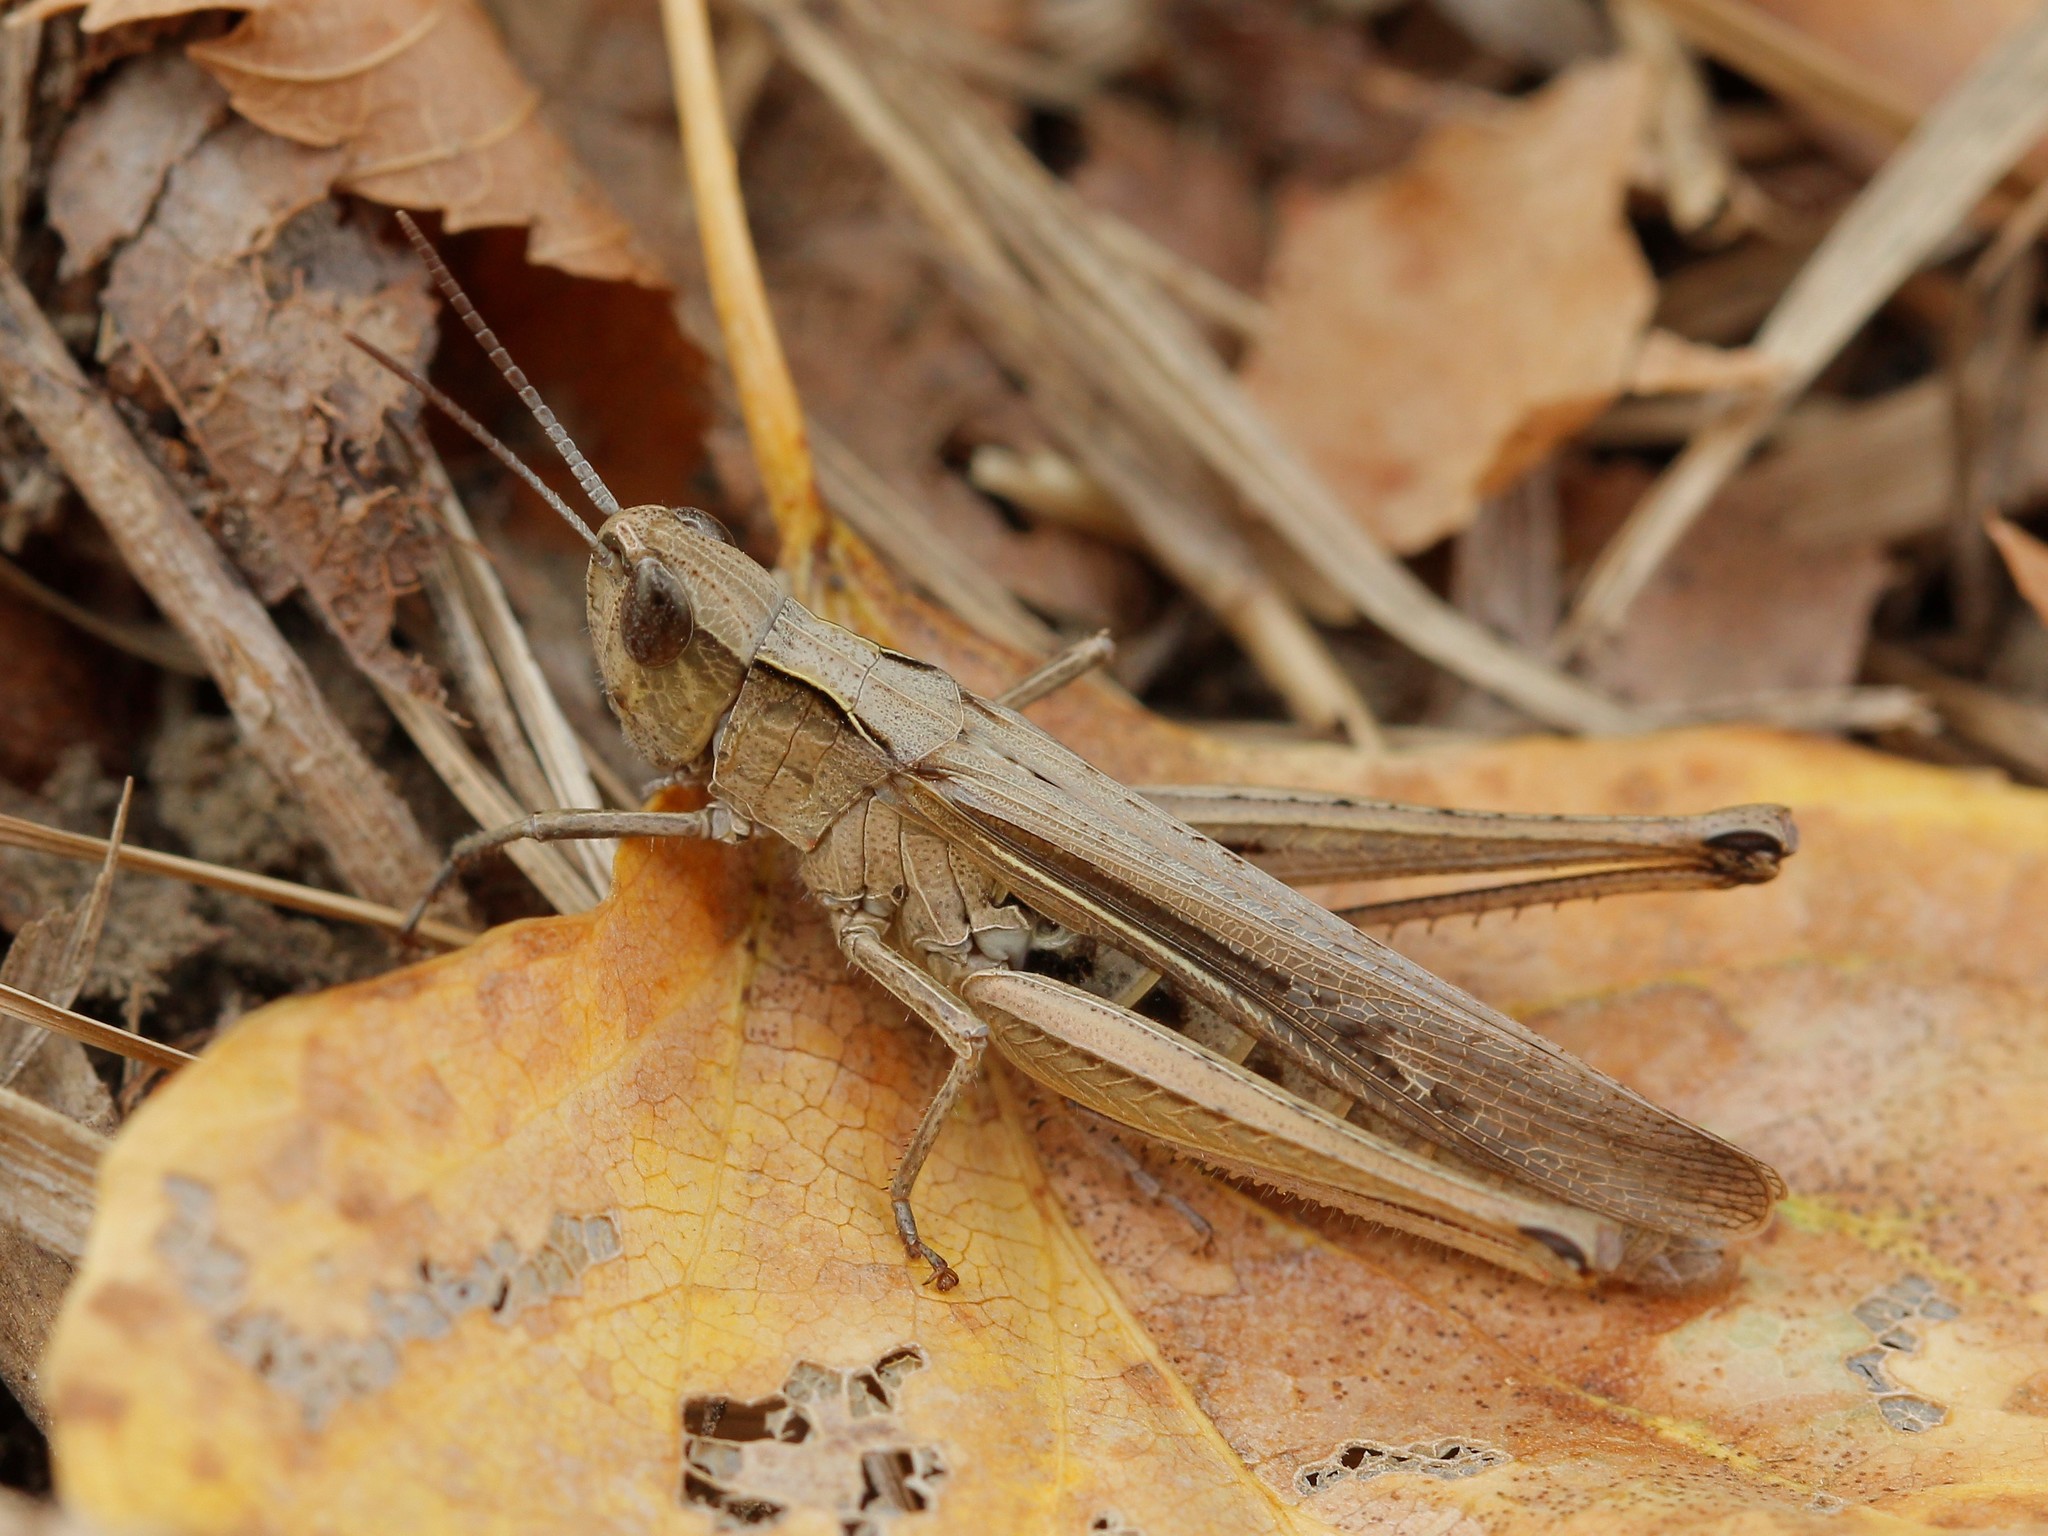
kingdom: Animalia
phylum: Arthropoda
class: Insecta
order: Orthoptera
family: Acrididae
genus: Chorthippus
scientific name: Chorthippus loratus
